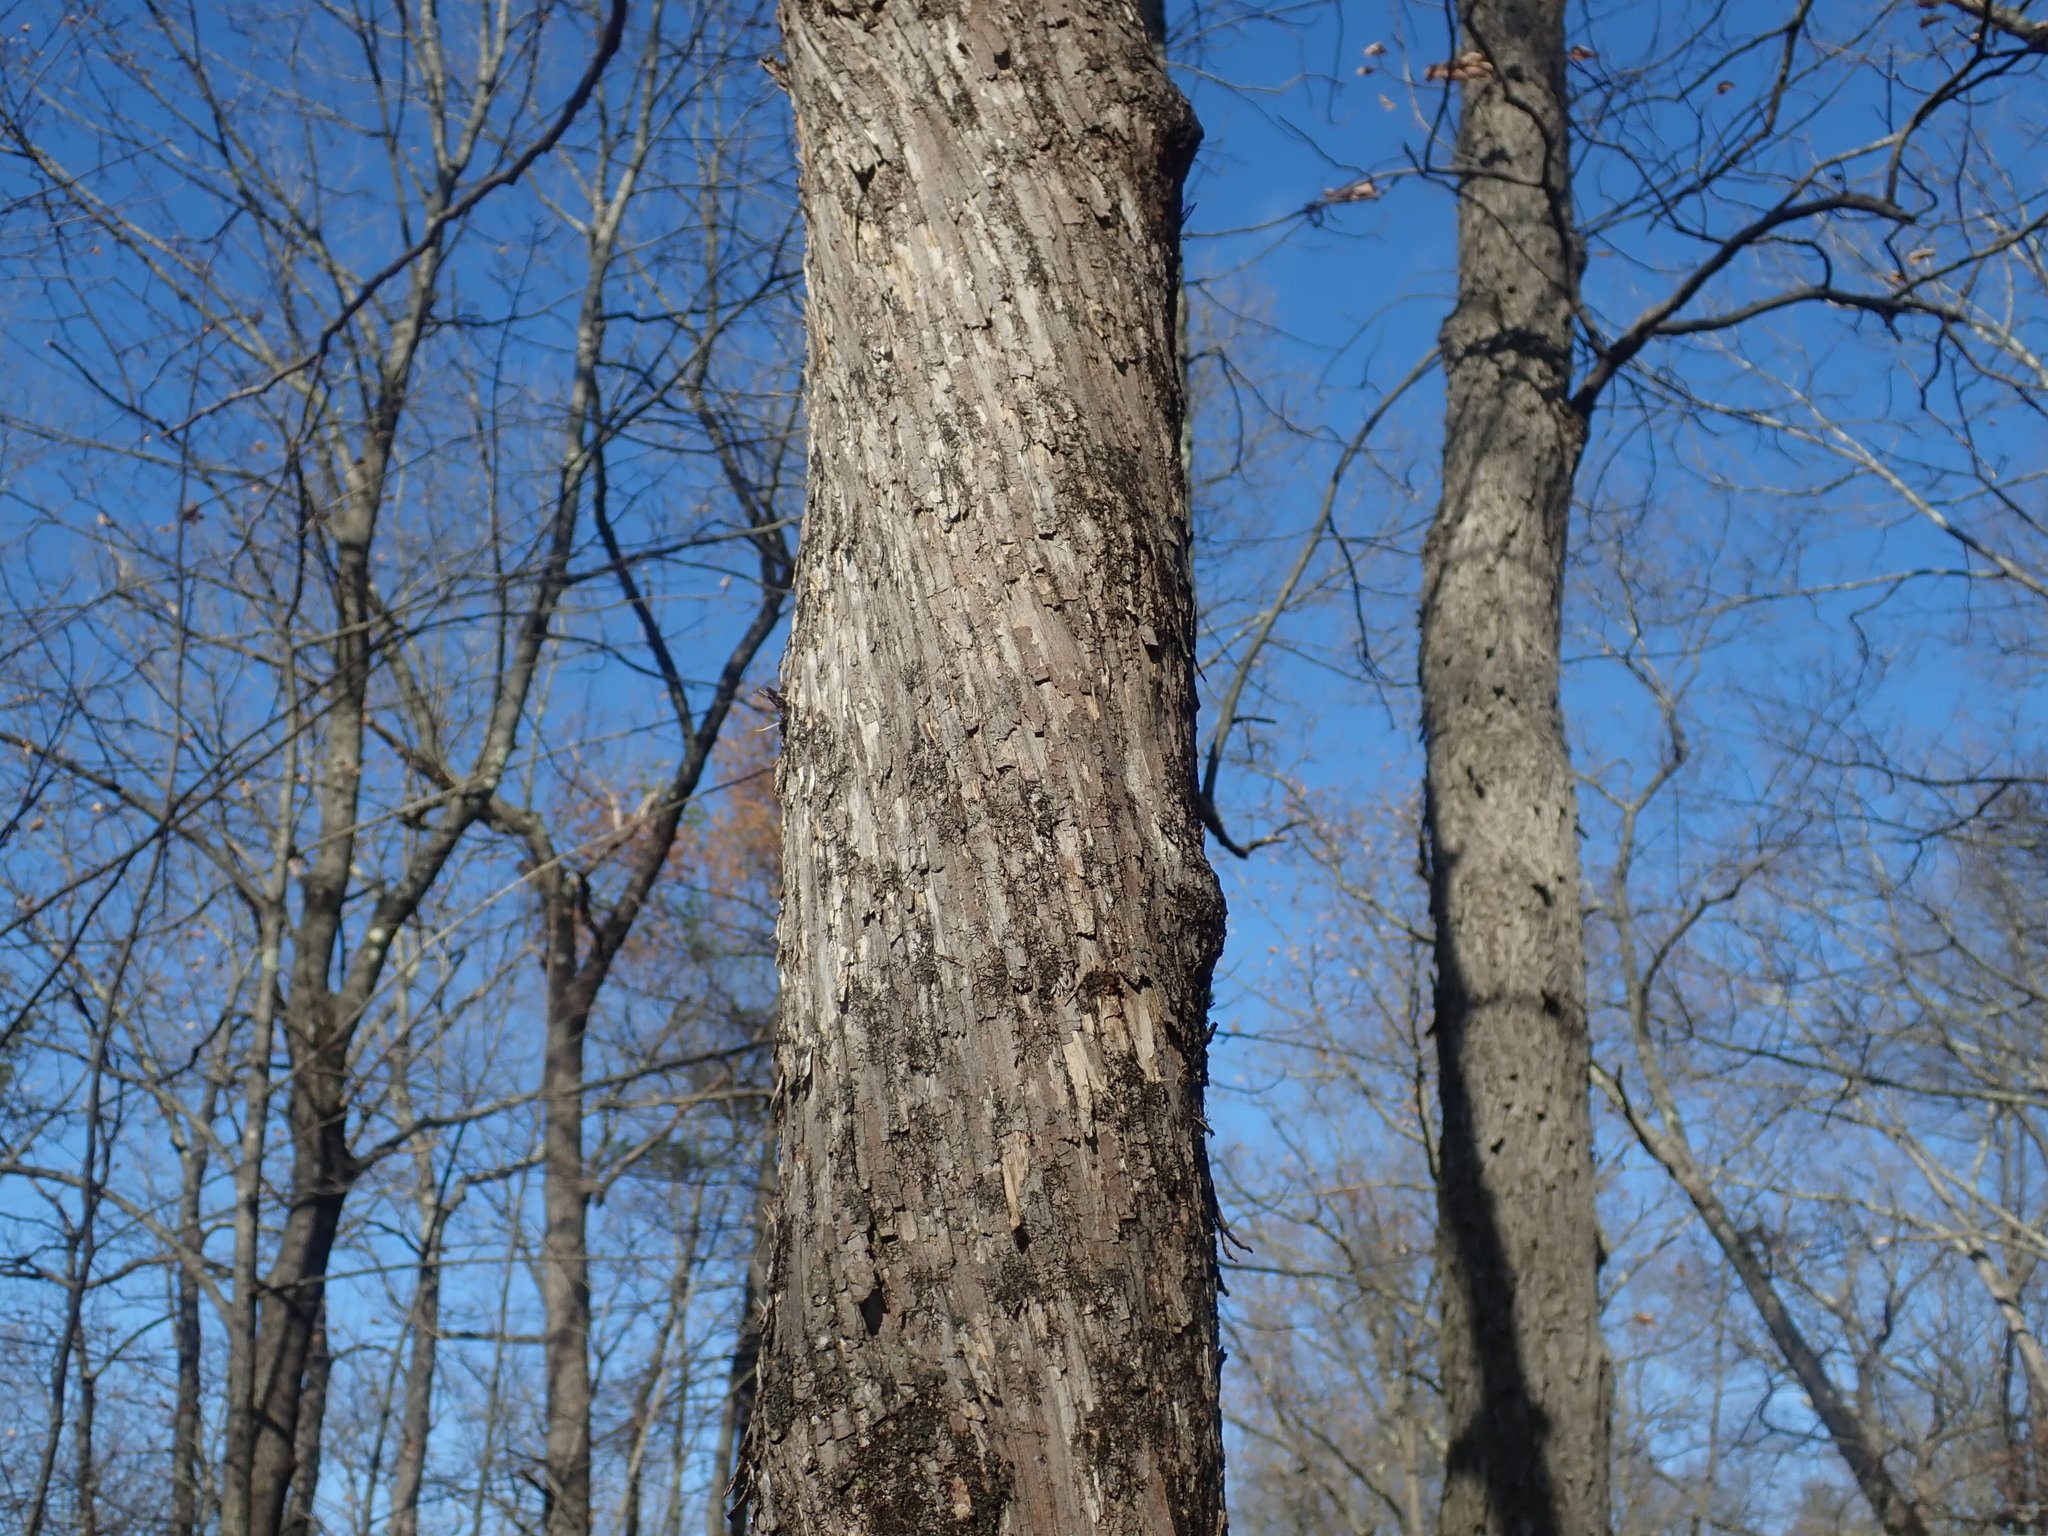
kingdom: Plantae
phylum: Tracheophyta
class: Magnoliopsida
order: Fagales
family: Betulaceae
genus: Ostrya
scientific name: Ostrya virginiana
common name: Ironwood
